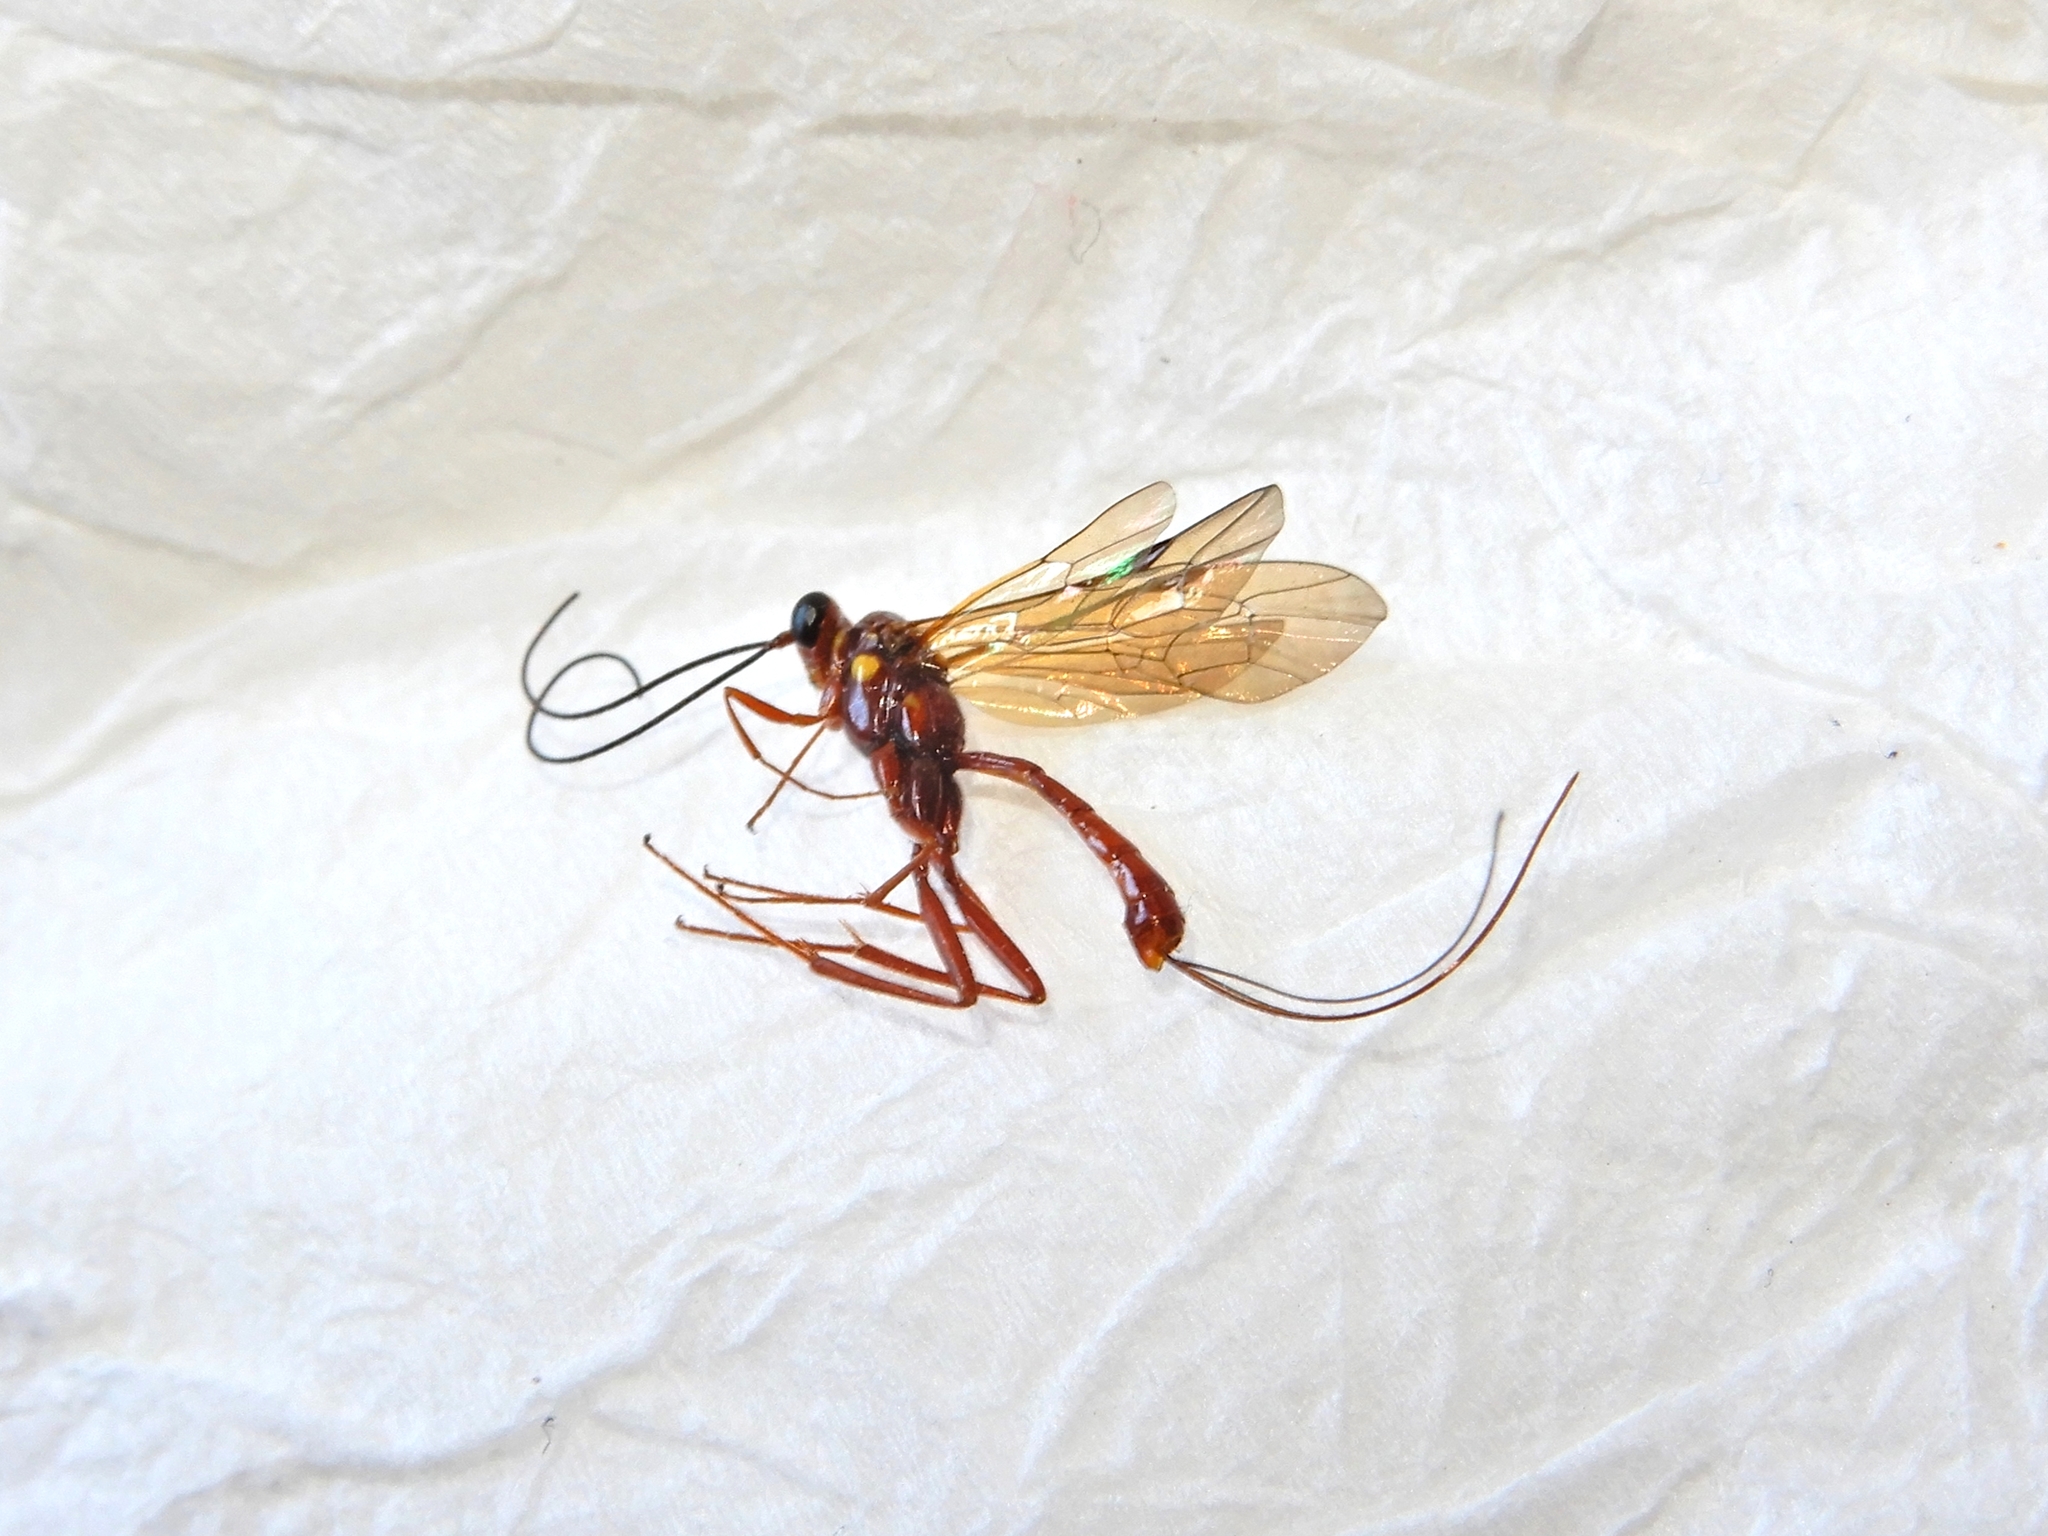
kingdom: Animalia
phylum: Arthropoda
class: Insecta
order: Hymenoptera
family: Ichneumonidae
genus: Lissonota
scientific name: Lissonota fulva
